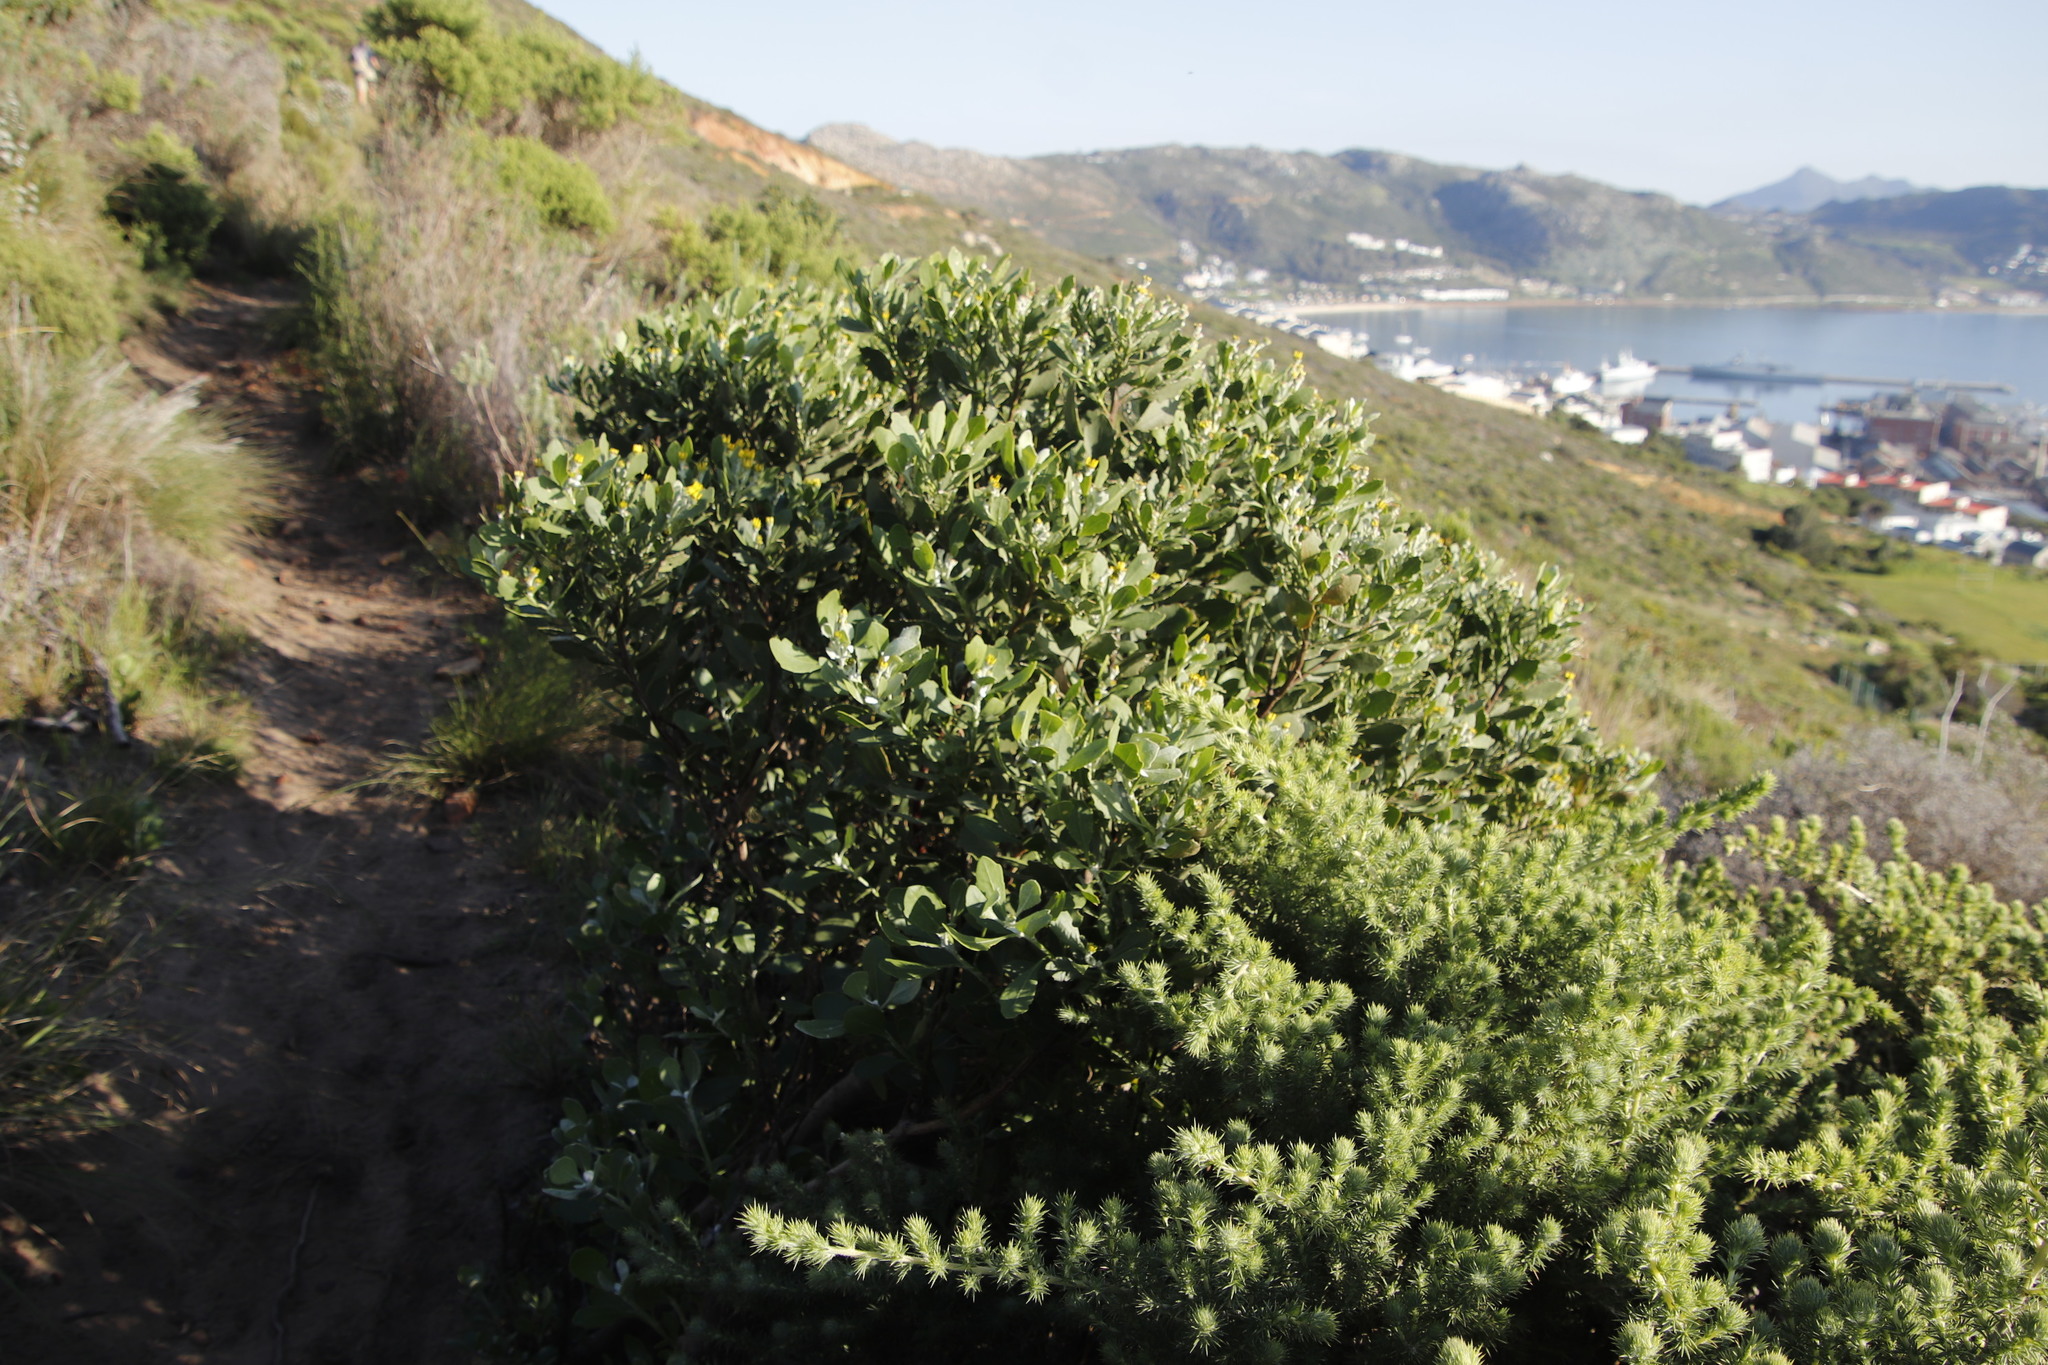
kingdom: Plantae
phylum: Tracheophyta
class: Magnoliopsida
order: Asterales
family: Asteraceae
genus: Osteospermum
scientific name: Osteospermum moniliferum
